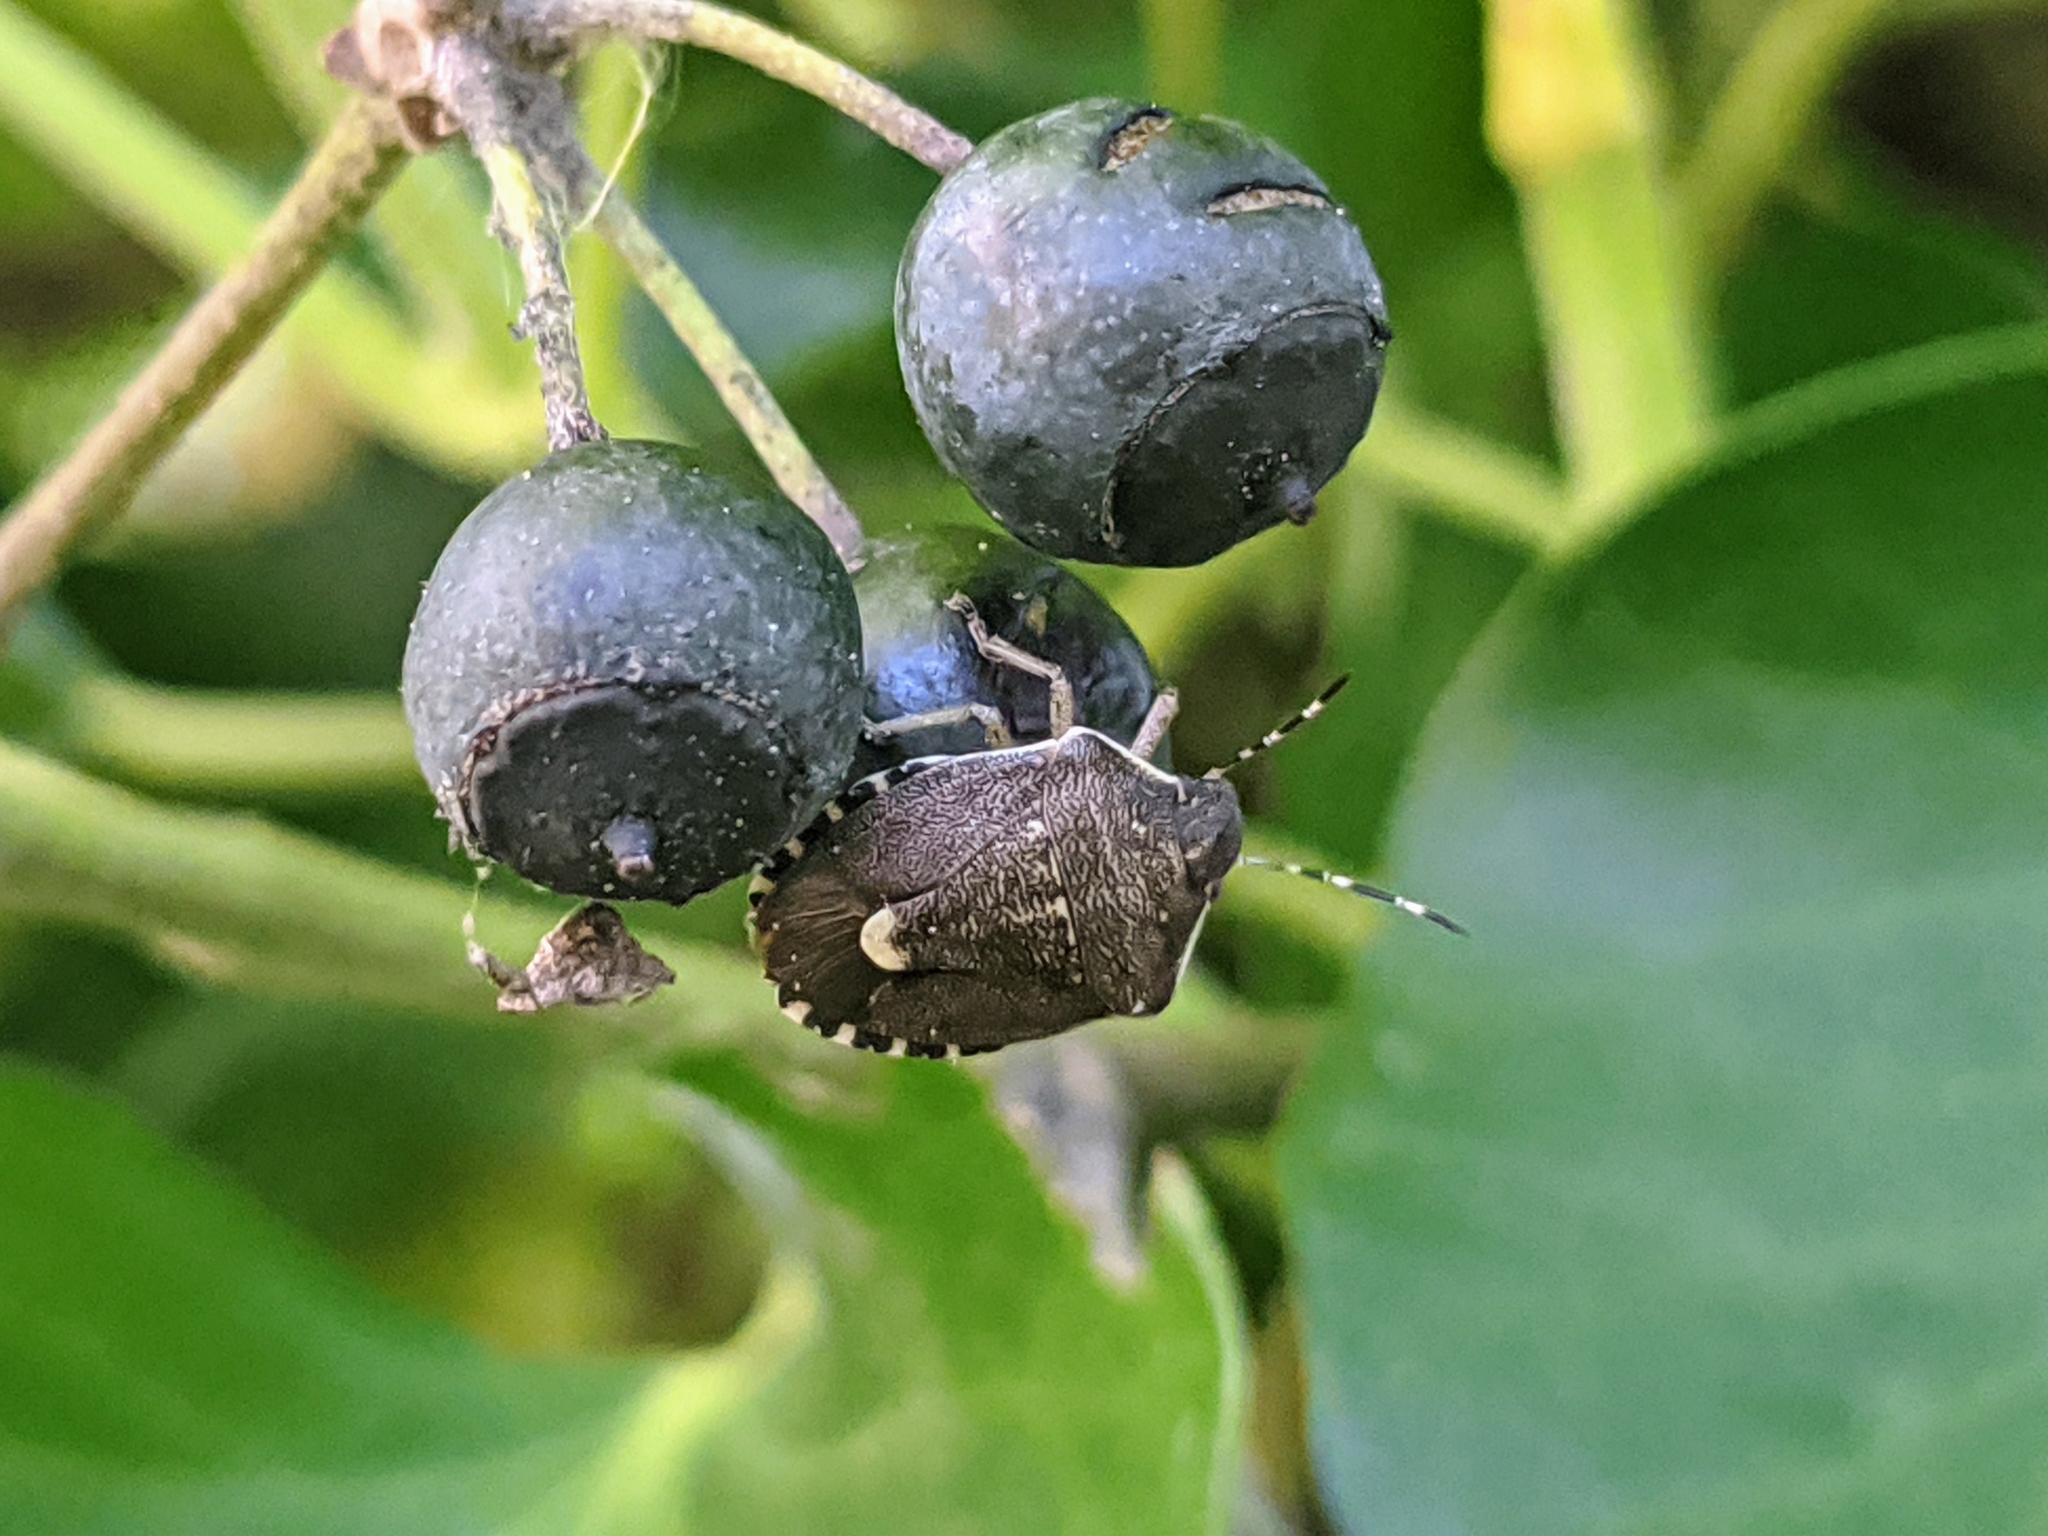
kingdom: Animalia
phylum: Arthropoda
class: Insecta
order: Hemiptera
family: Pentatomidae
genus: Holcostethus
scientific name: Holcostethus sphacelatus
